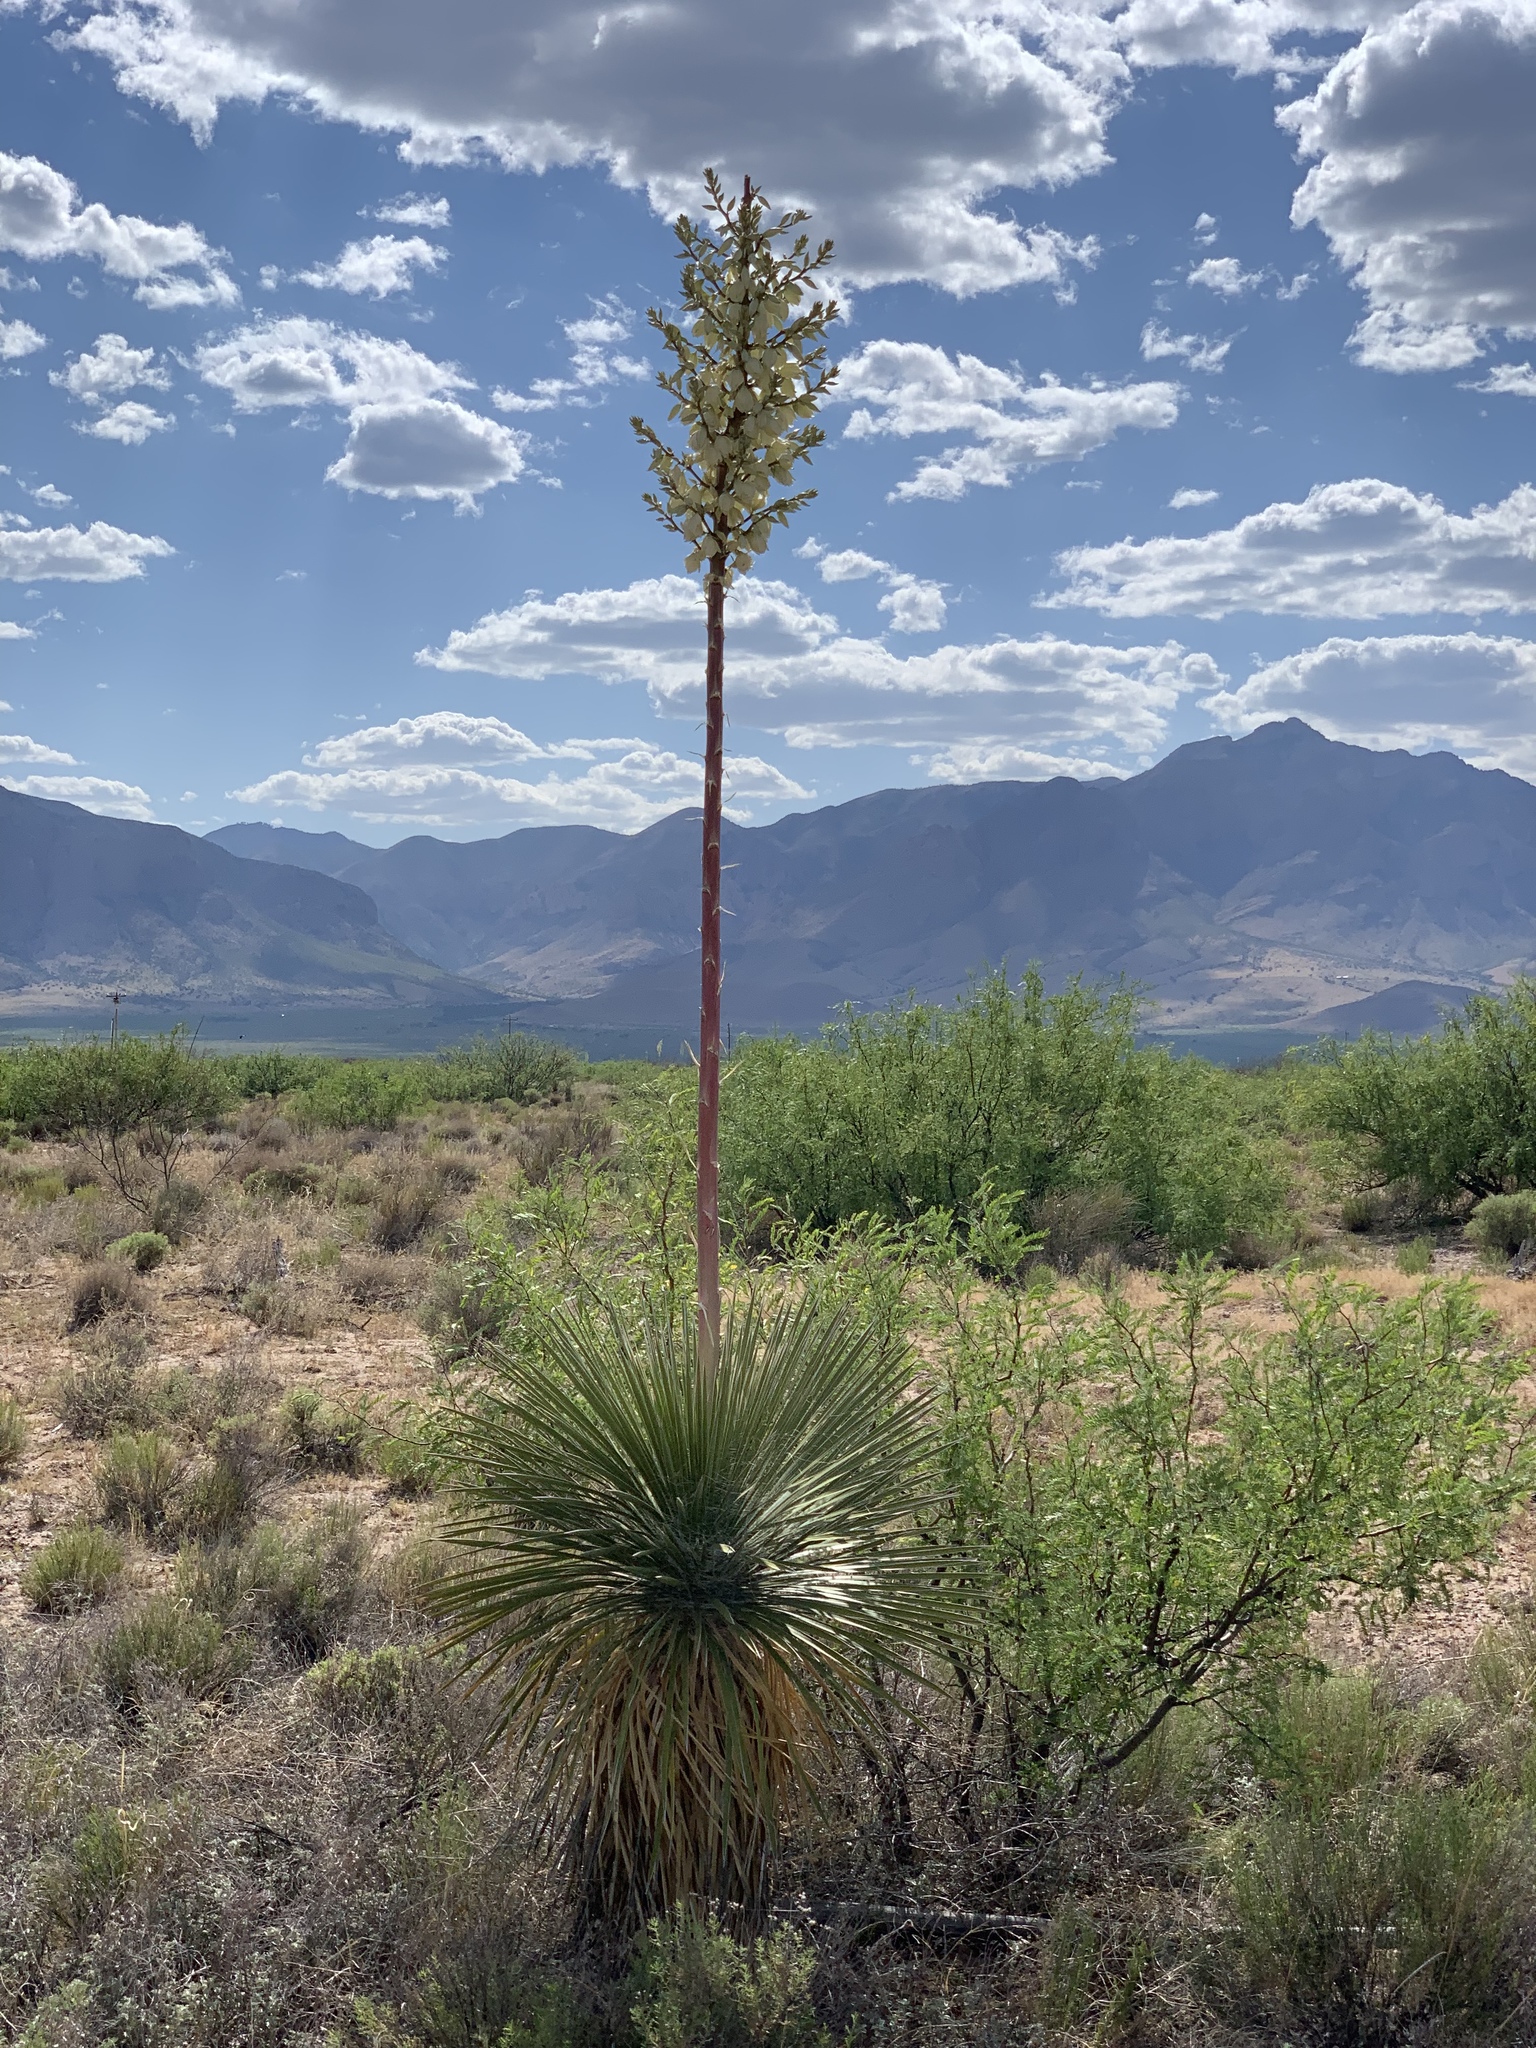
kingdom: Plantae
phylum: Tracheophyta
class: Liliopsida
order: Asparagales
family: Asparagaceae
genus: Yucca
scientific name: Yucca elata
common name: Palmella
